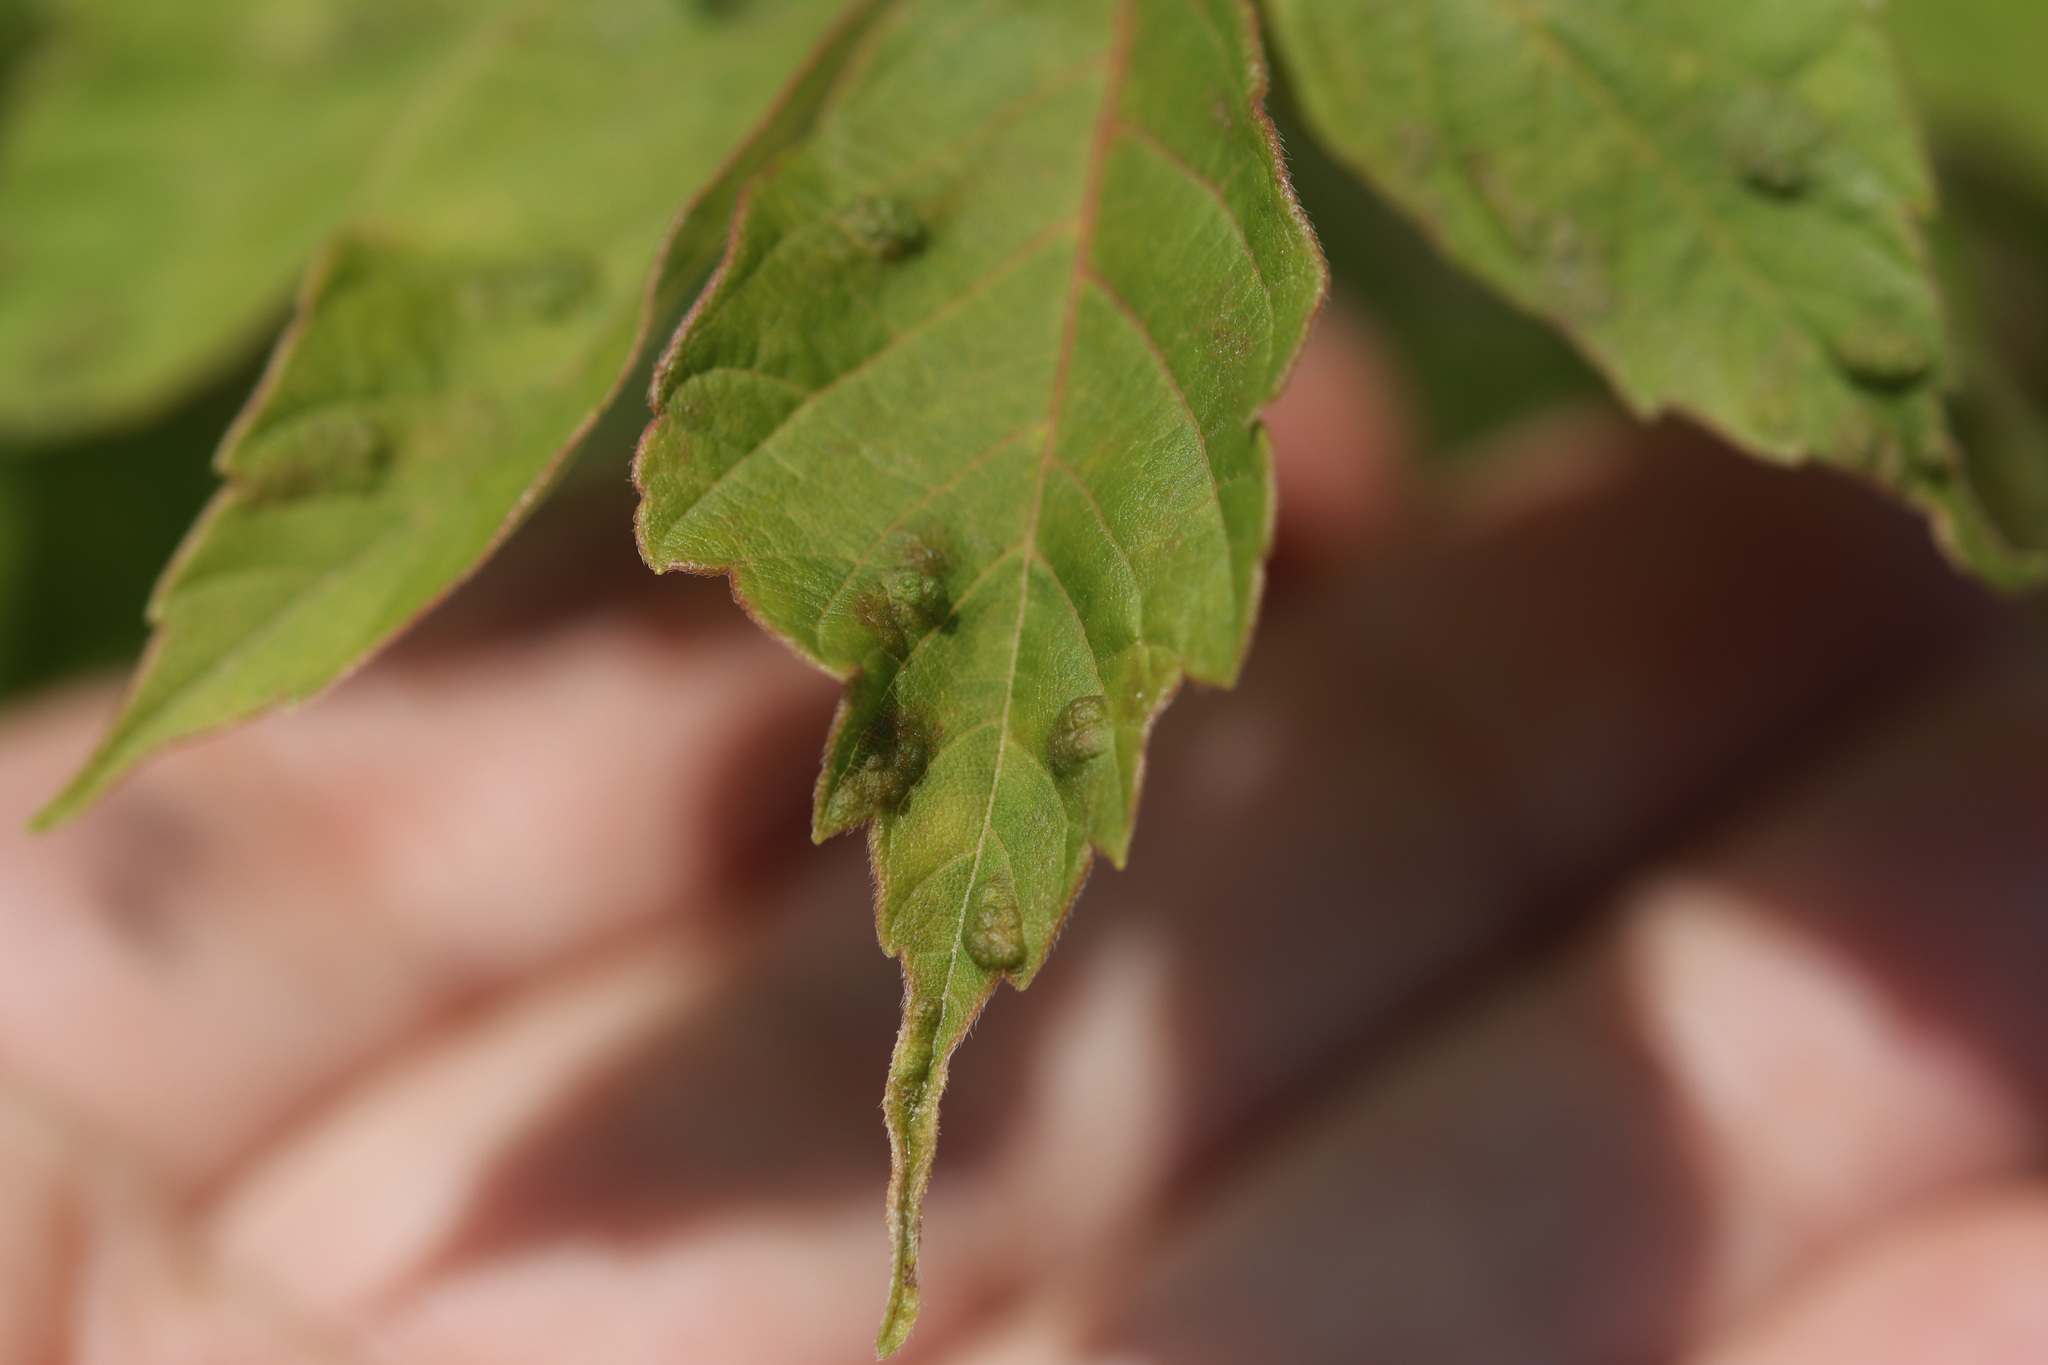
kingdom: Animalia
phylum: Arthropoda
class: Arachnida
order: Trombidiformes
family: Eriophyidae
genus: Aceria
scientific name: Aceria
